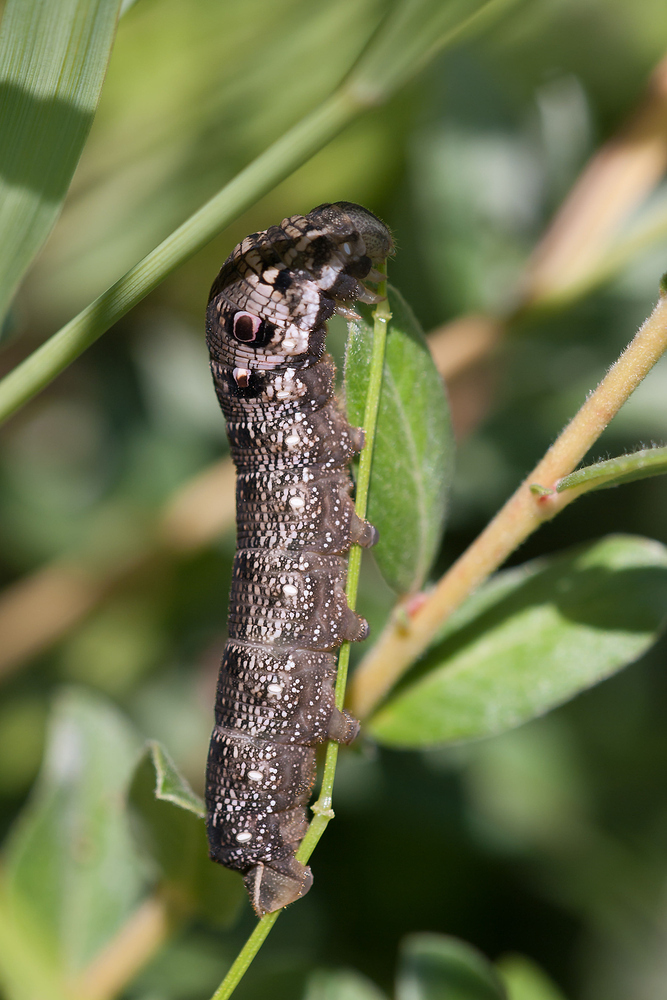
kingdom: Animalia
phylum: Arthropoda
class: Insecta
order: Lepidoptera
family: Sphingidae
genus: Deilephila
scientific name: Deilephila porcellus
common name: Small elephant hawk-moth
